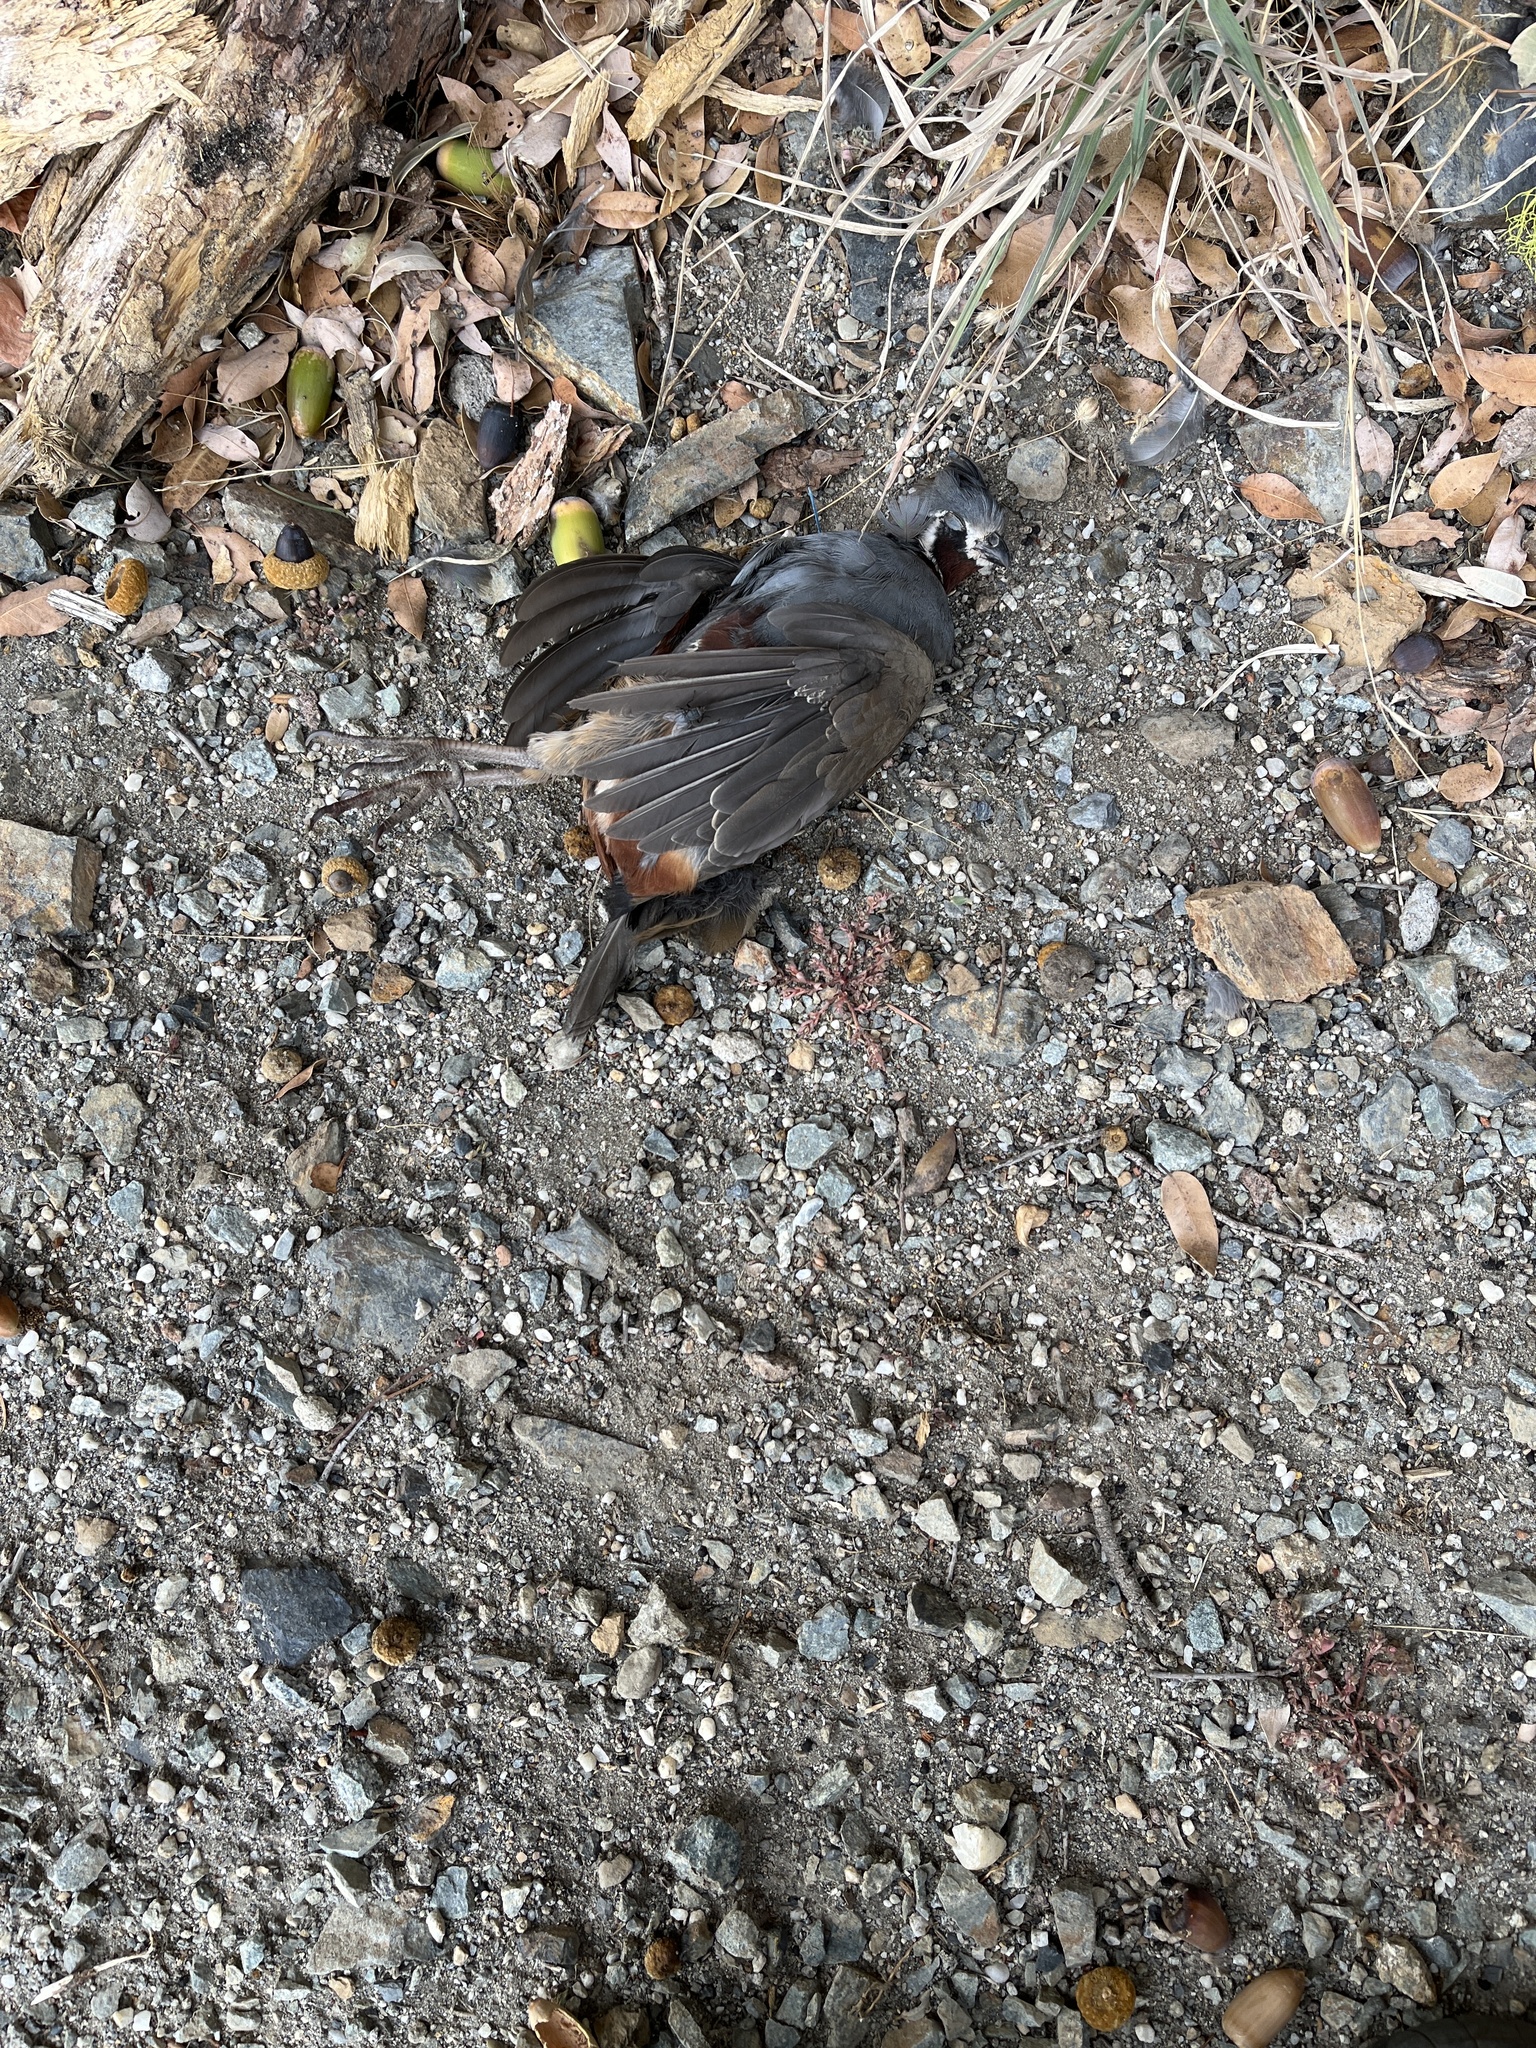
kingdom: Animalia
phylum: Chordata
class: Aves
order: Galliformes
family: Odontophoridae
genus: Oreortyx
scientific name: Oreortyx pictus
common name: Mountain quail
